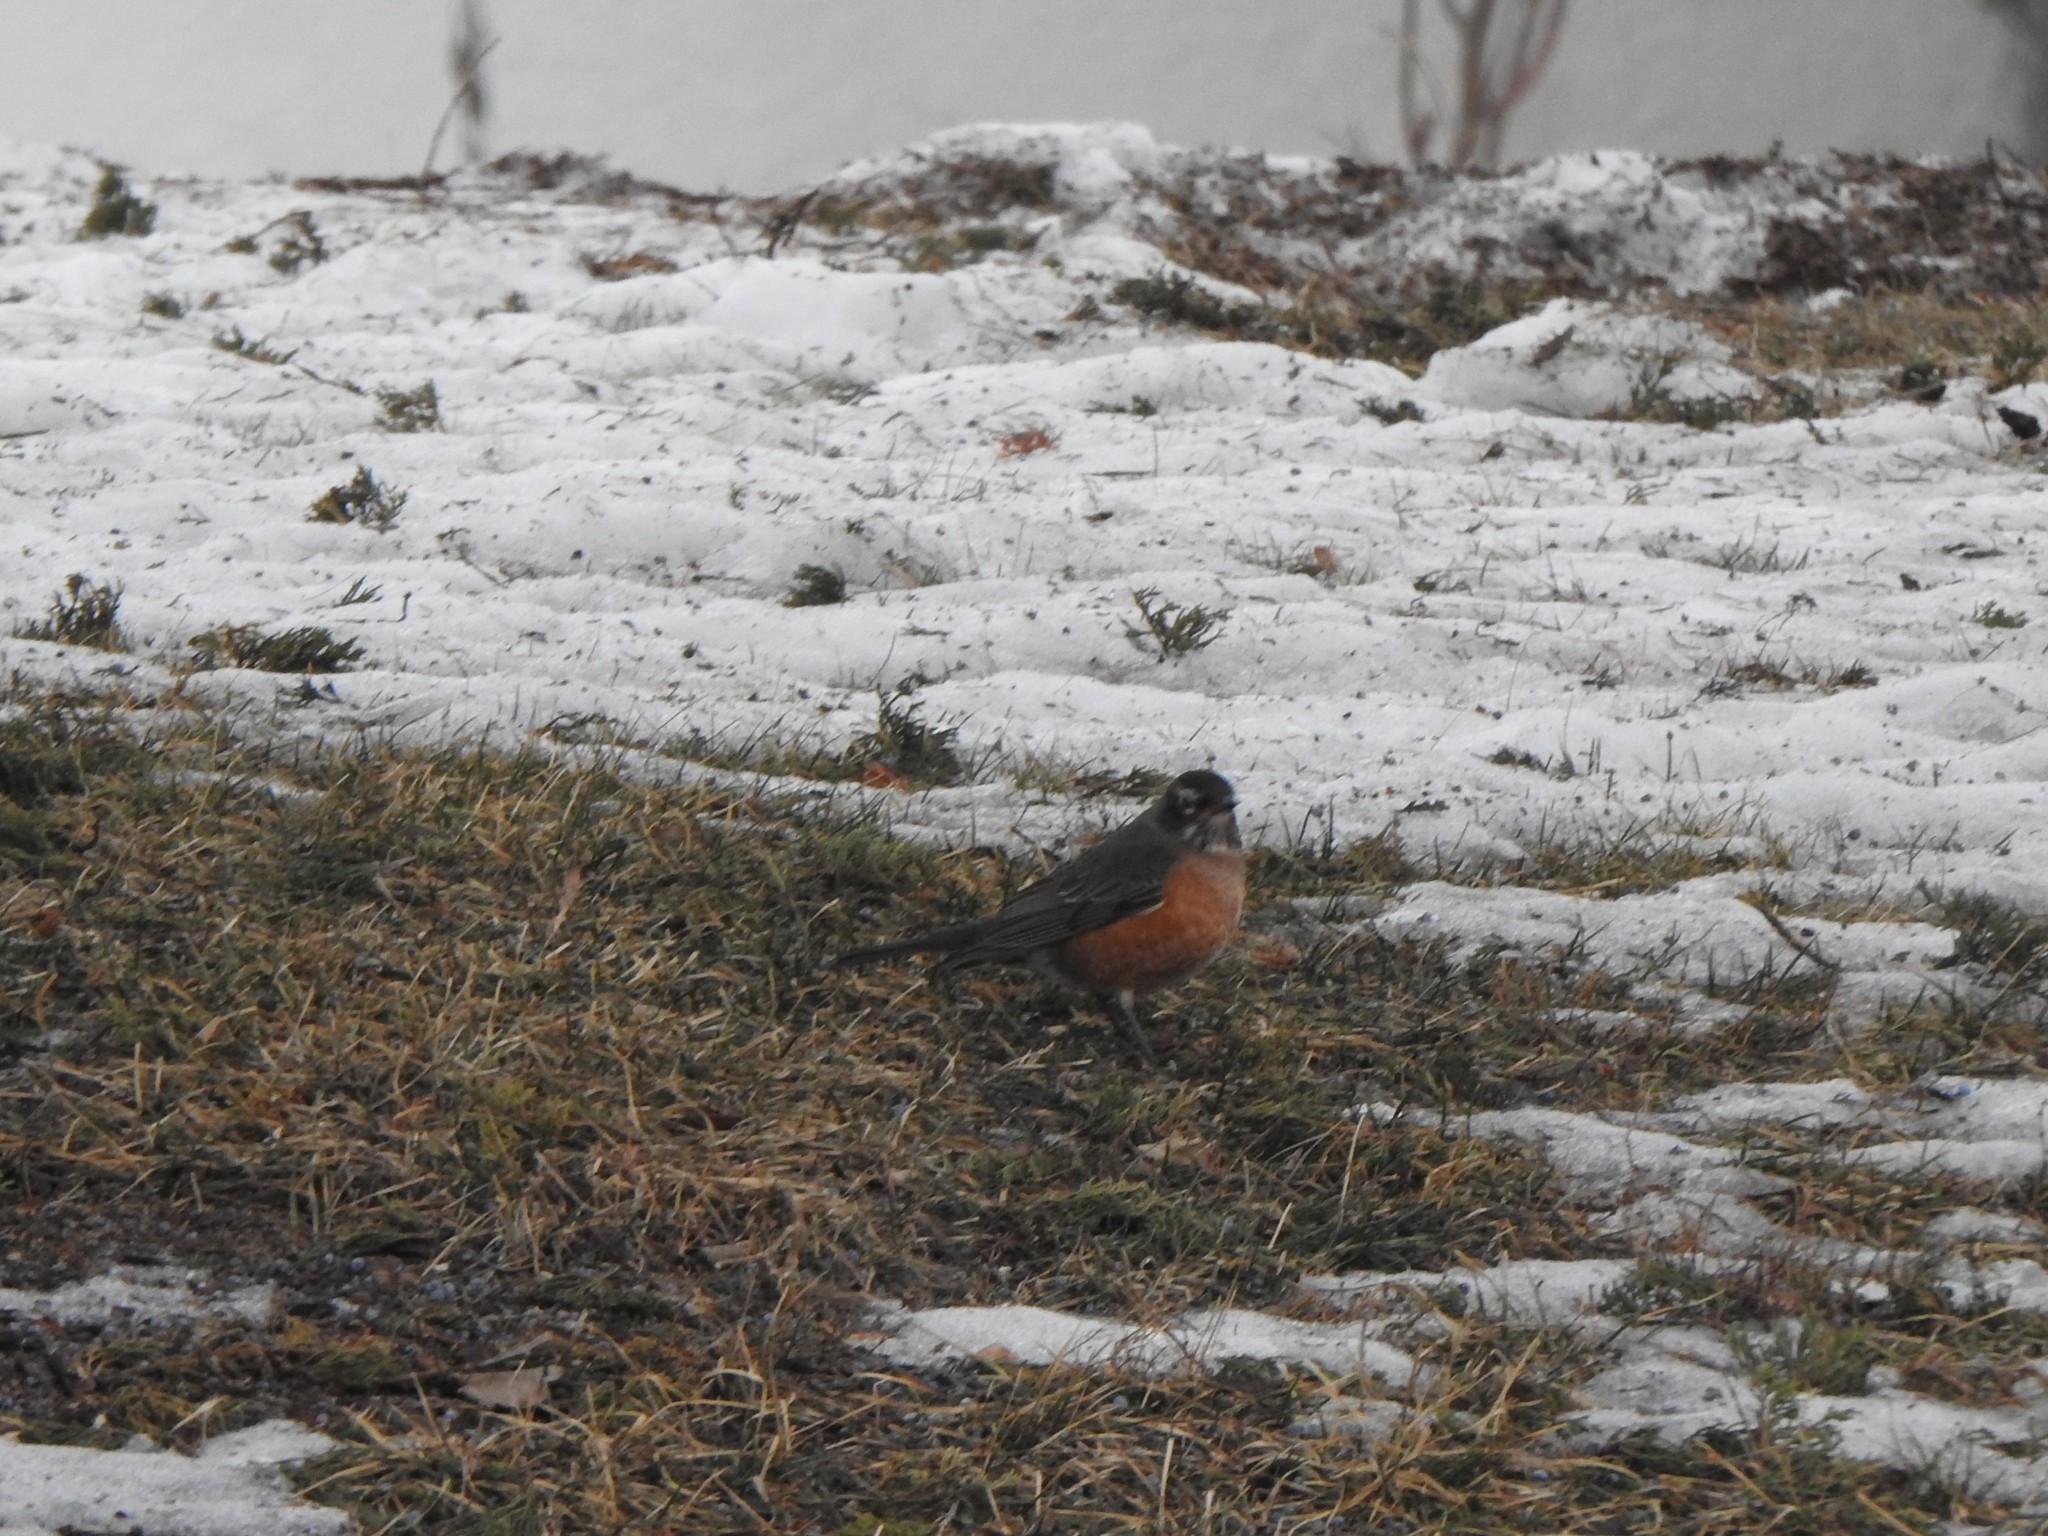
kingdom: Animalia
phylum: Chordata
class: Aves
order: Passeriformes
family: Turdidae
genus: Turdus
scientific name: Turdus migratorius
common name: American robin
